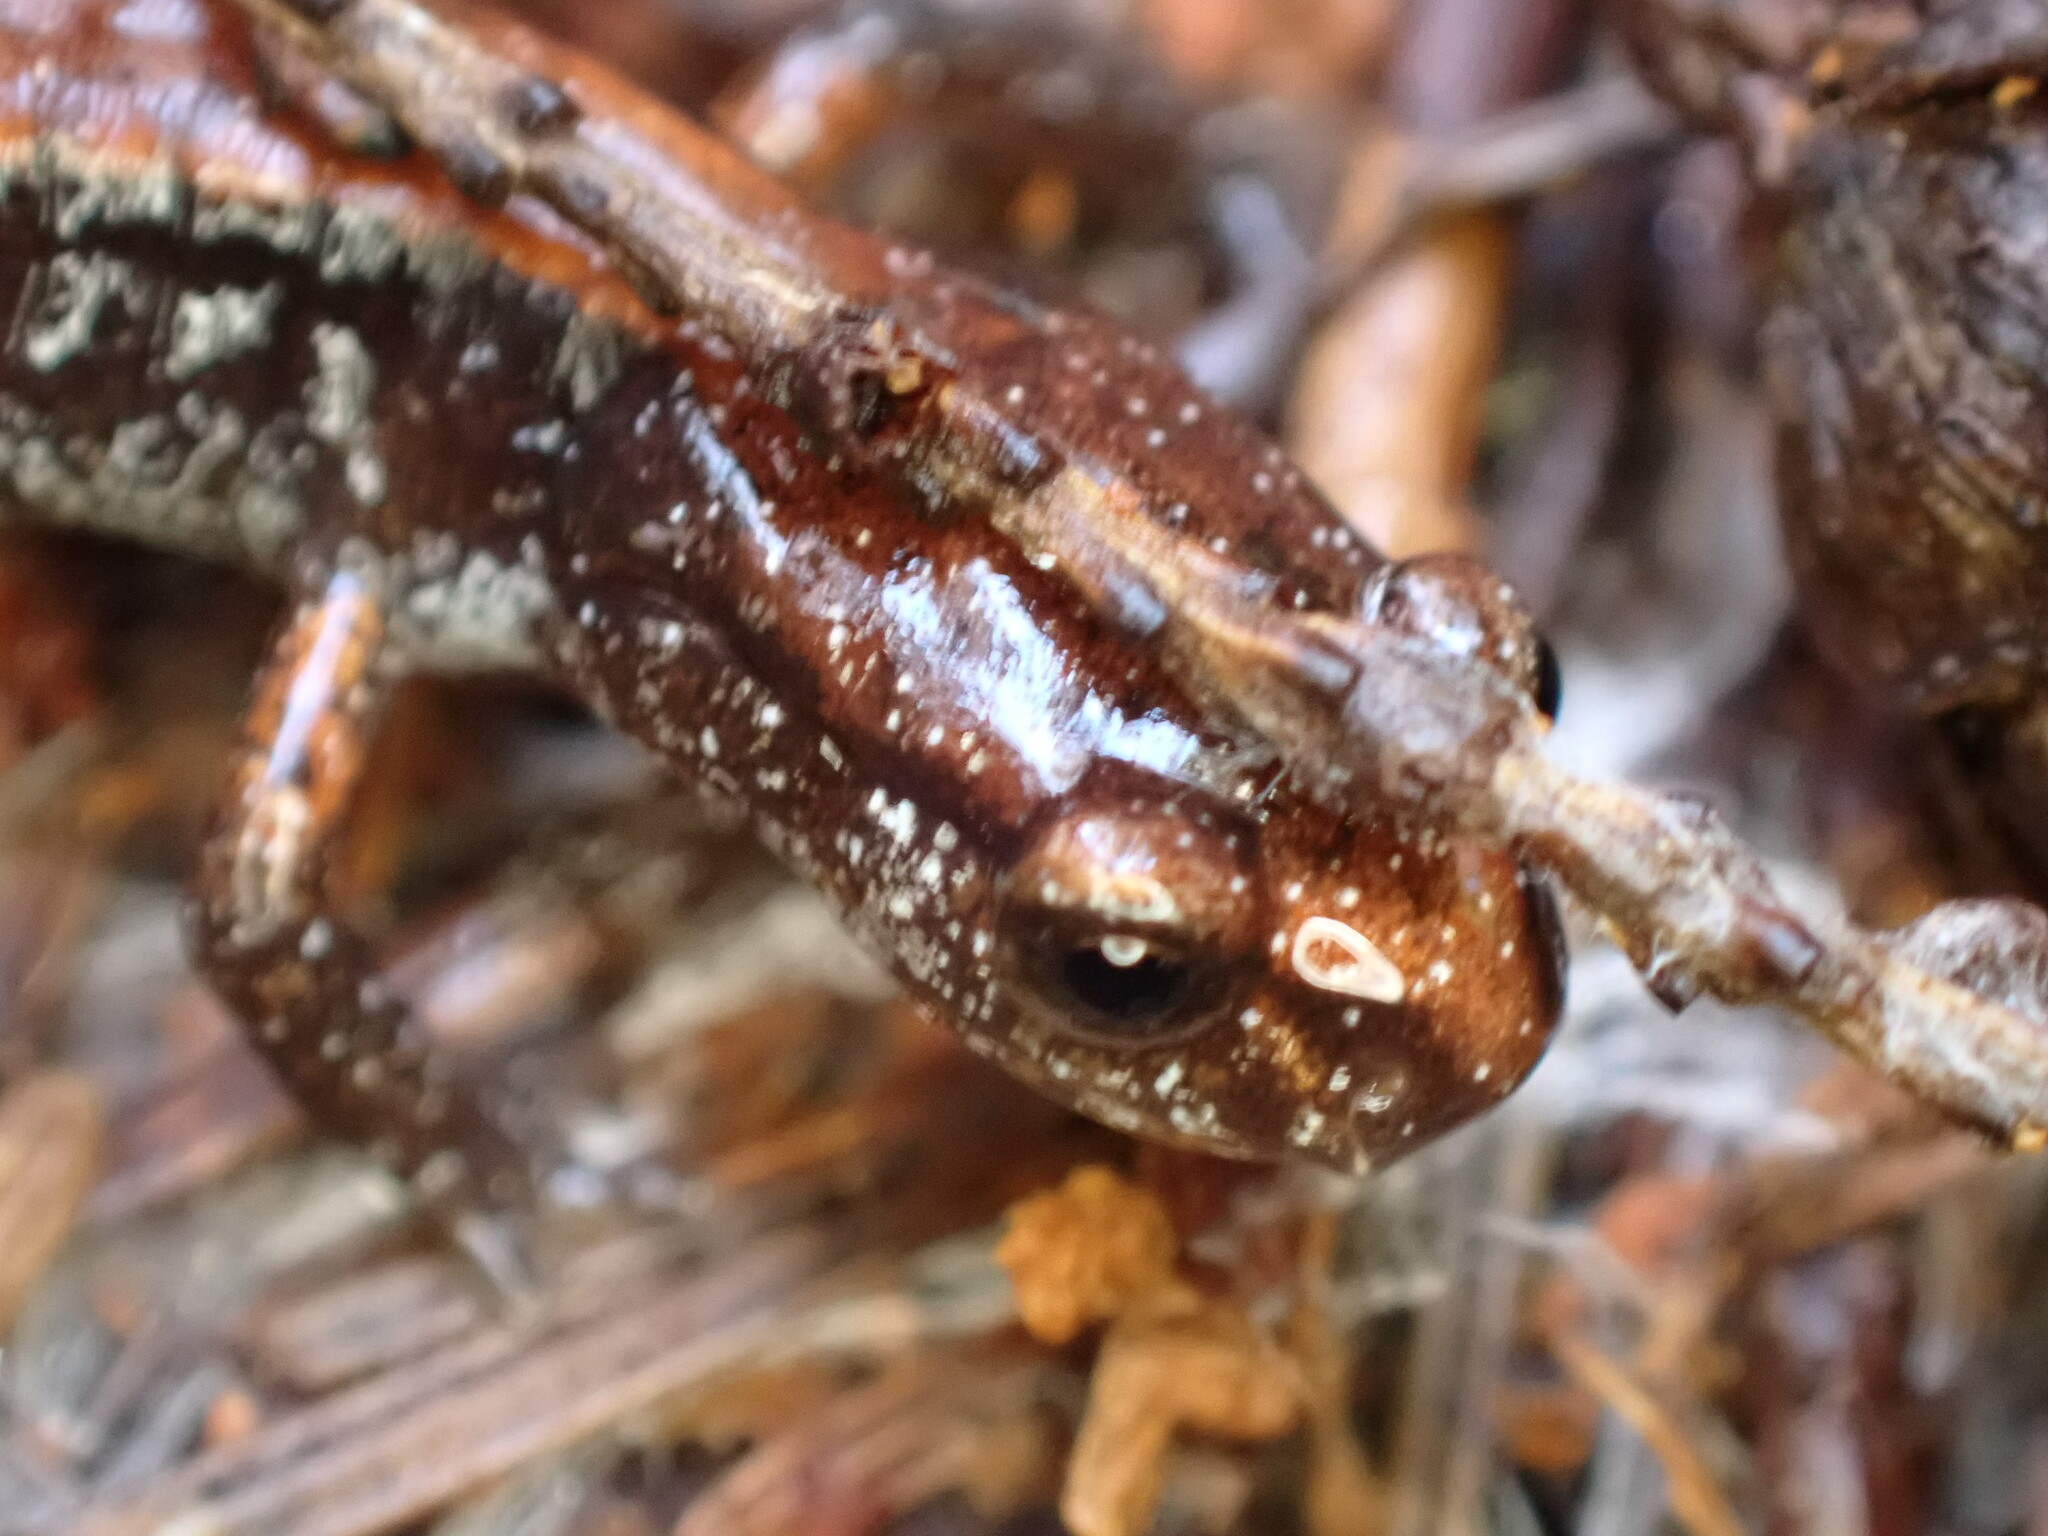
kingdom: Animalia
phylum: Chordata
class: Amphibia
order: Caudata
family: Plethodontidae
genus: Plethodon
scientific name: Plethodon vehiculum
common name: Western red-backed salamander
